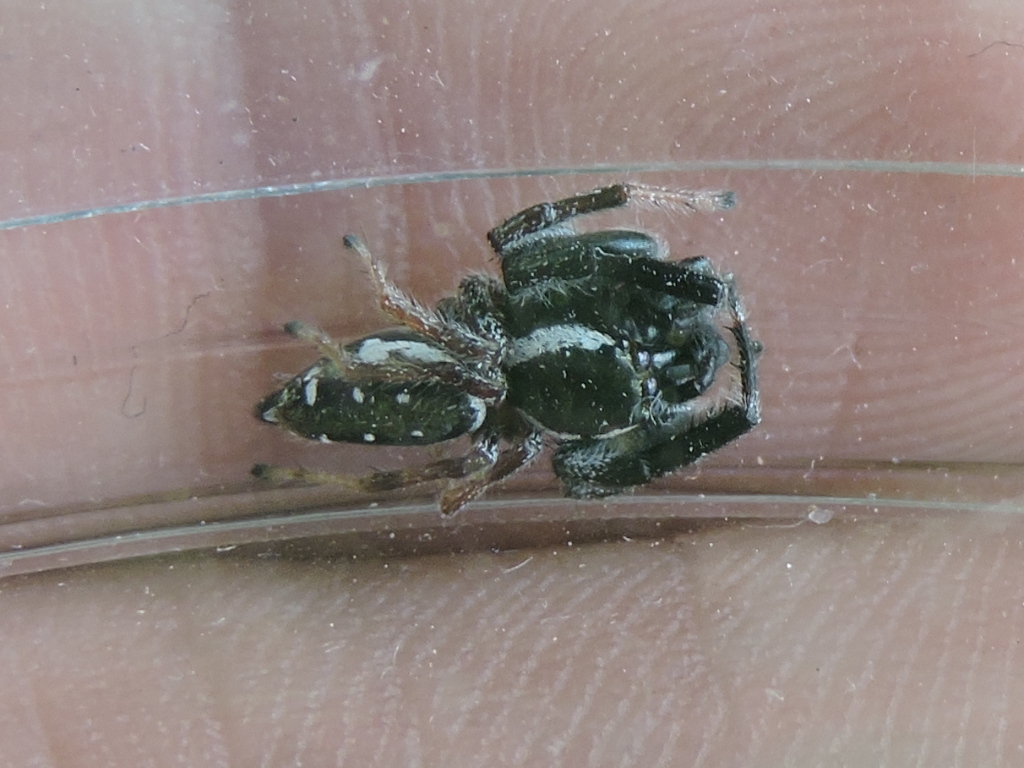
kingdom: Animalia
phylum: Arthropoda
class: Arachnida
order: Araneae
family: Salticidae
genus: Paraphidippus
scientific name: Paraphidippus aurantius
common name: Jumping spiders
